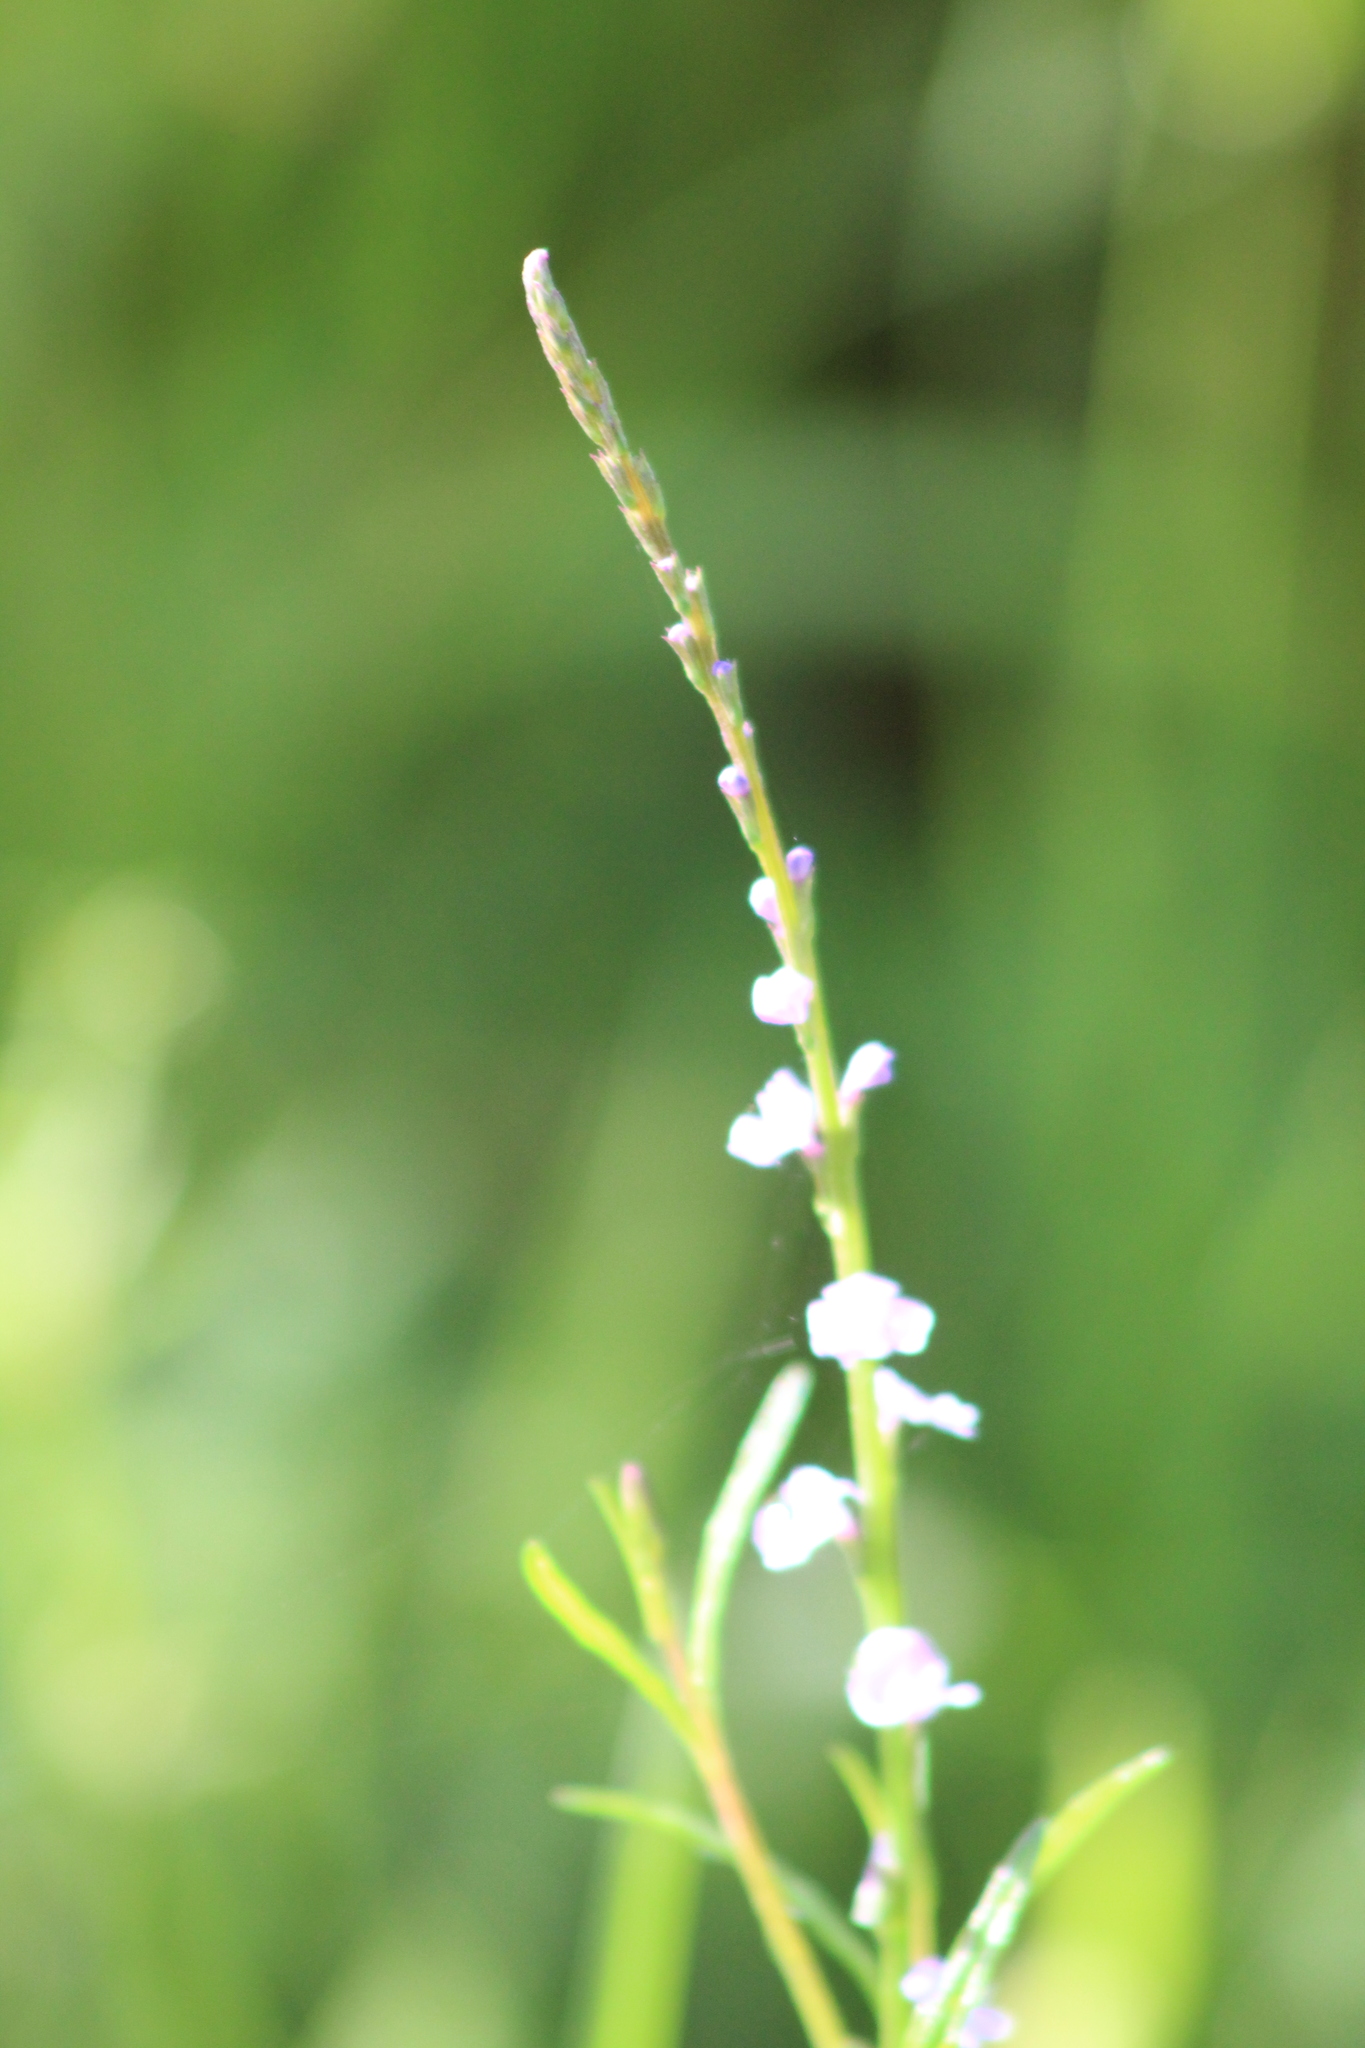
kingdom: Plantae
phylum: Tracheophyta
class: Magnoliopsida
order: Lamiales
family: Verbenaceae
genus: Verbena
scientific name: Verbena halei
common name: Texas vervain
